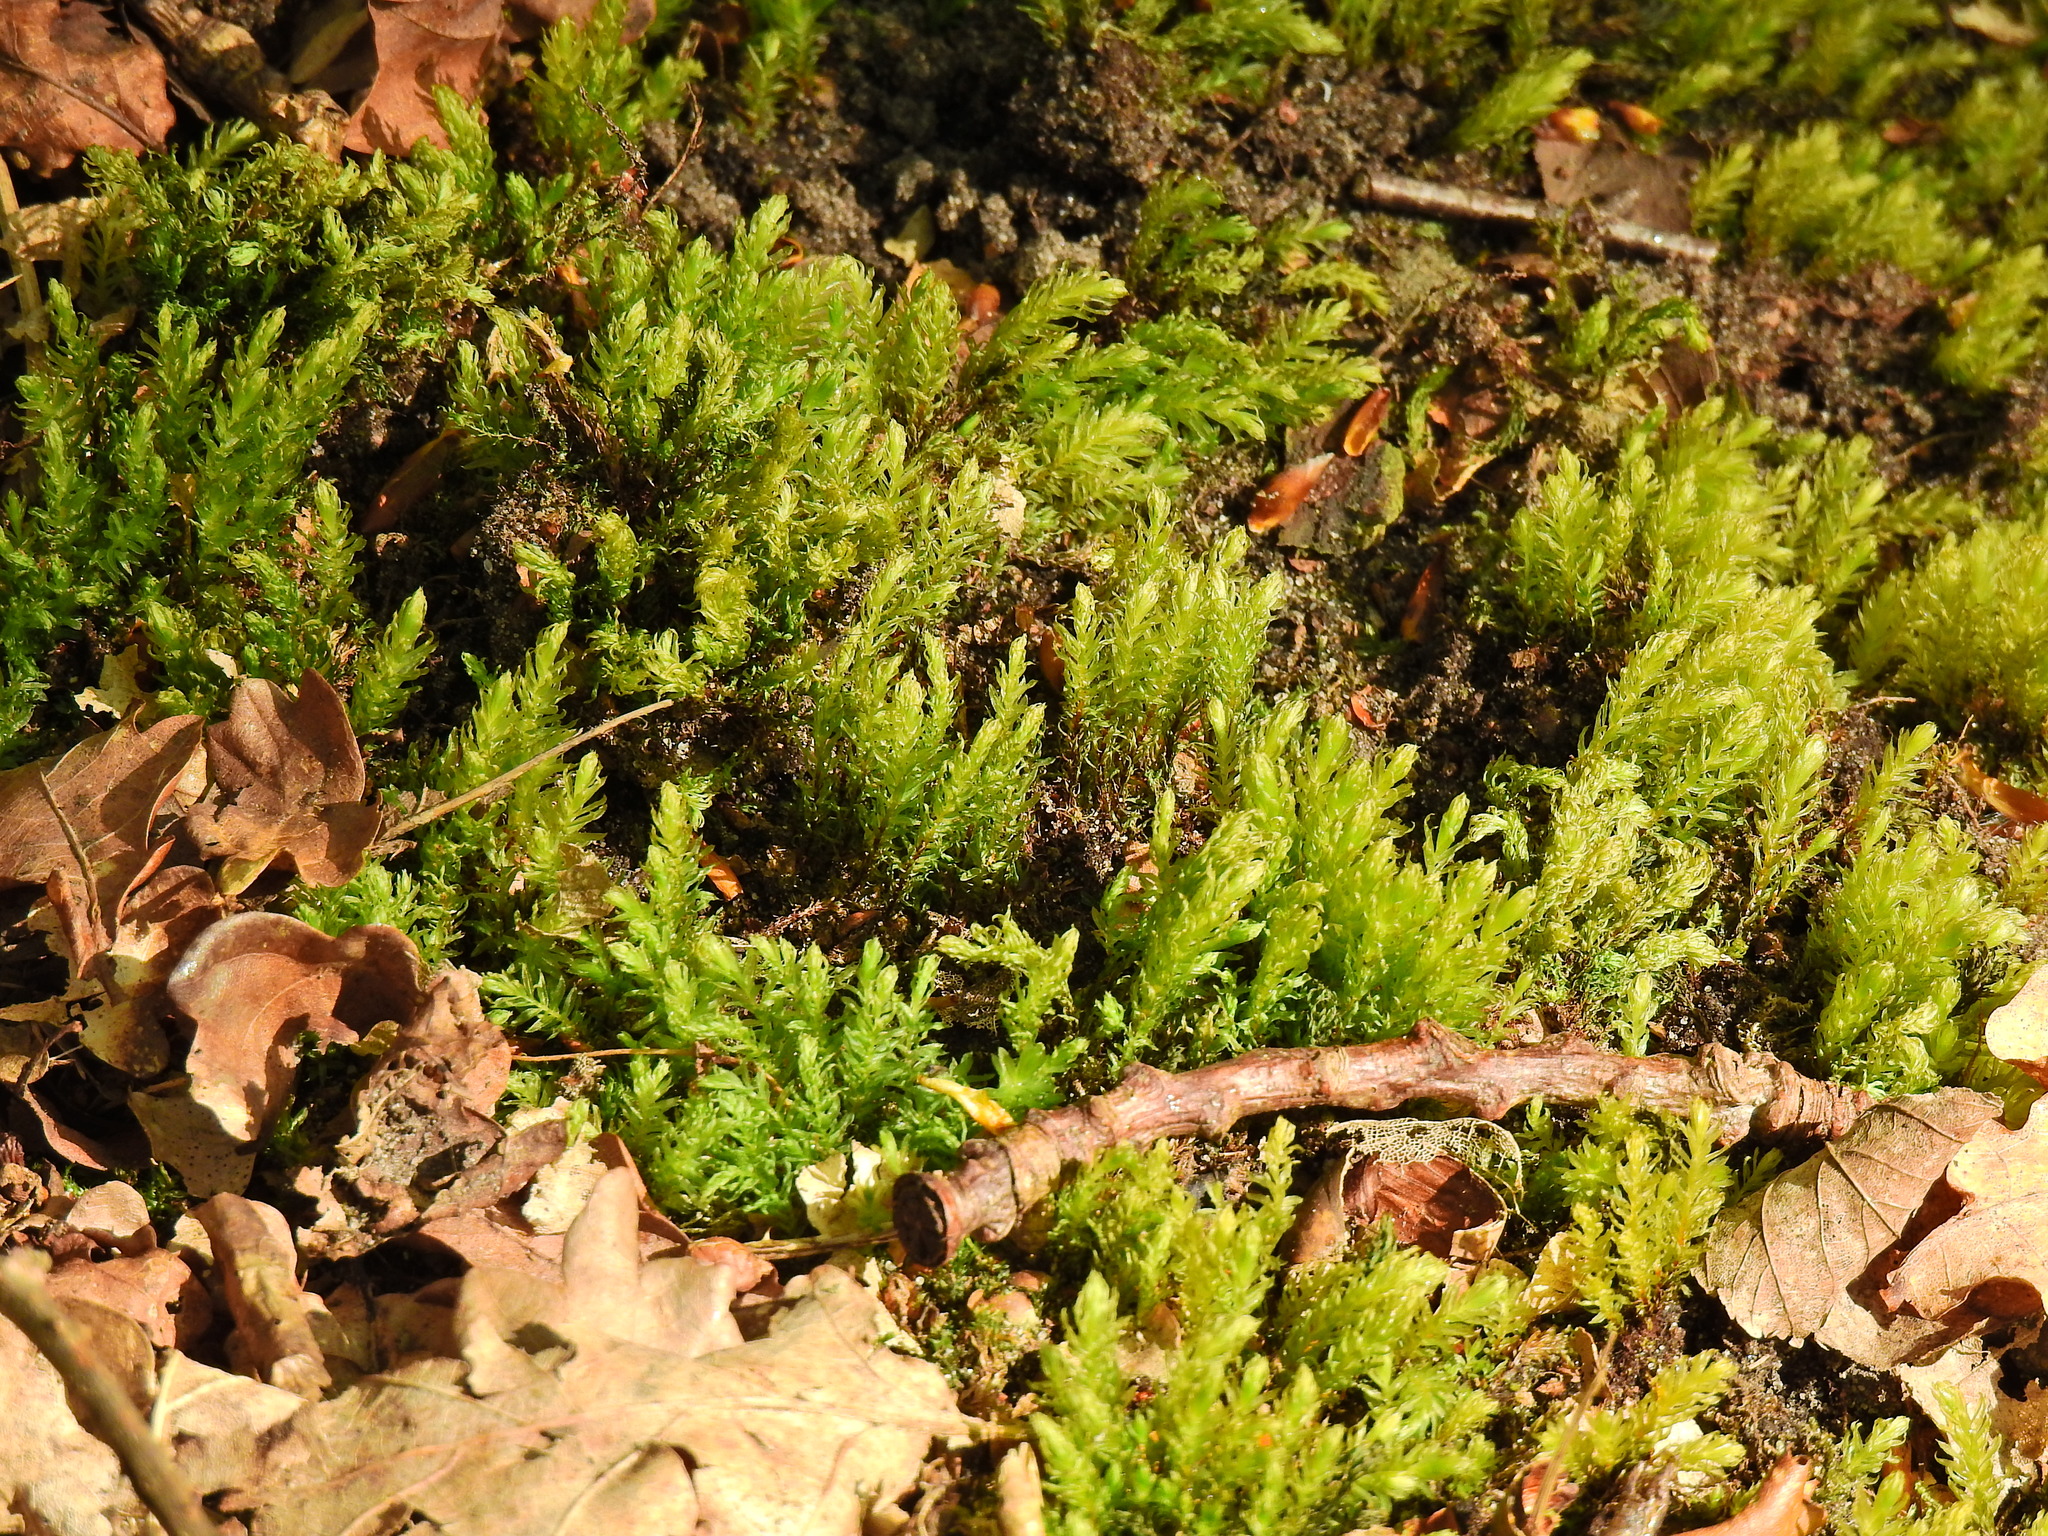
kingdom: Plantae
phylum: Bryophyta
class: Bryopsida
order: Bryales
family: Mniaceae
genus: Mnium
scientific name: Mnium hornum
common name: Swan's-neck leafy moss
